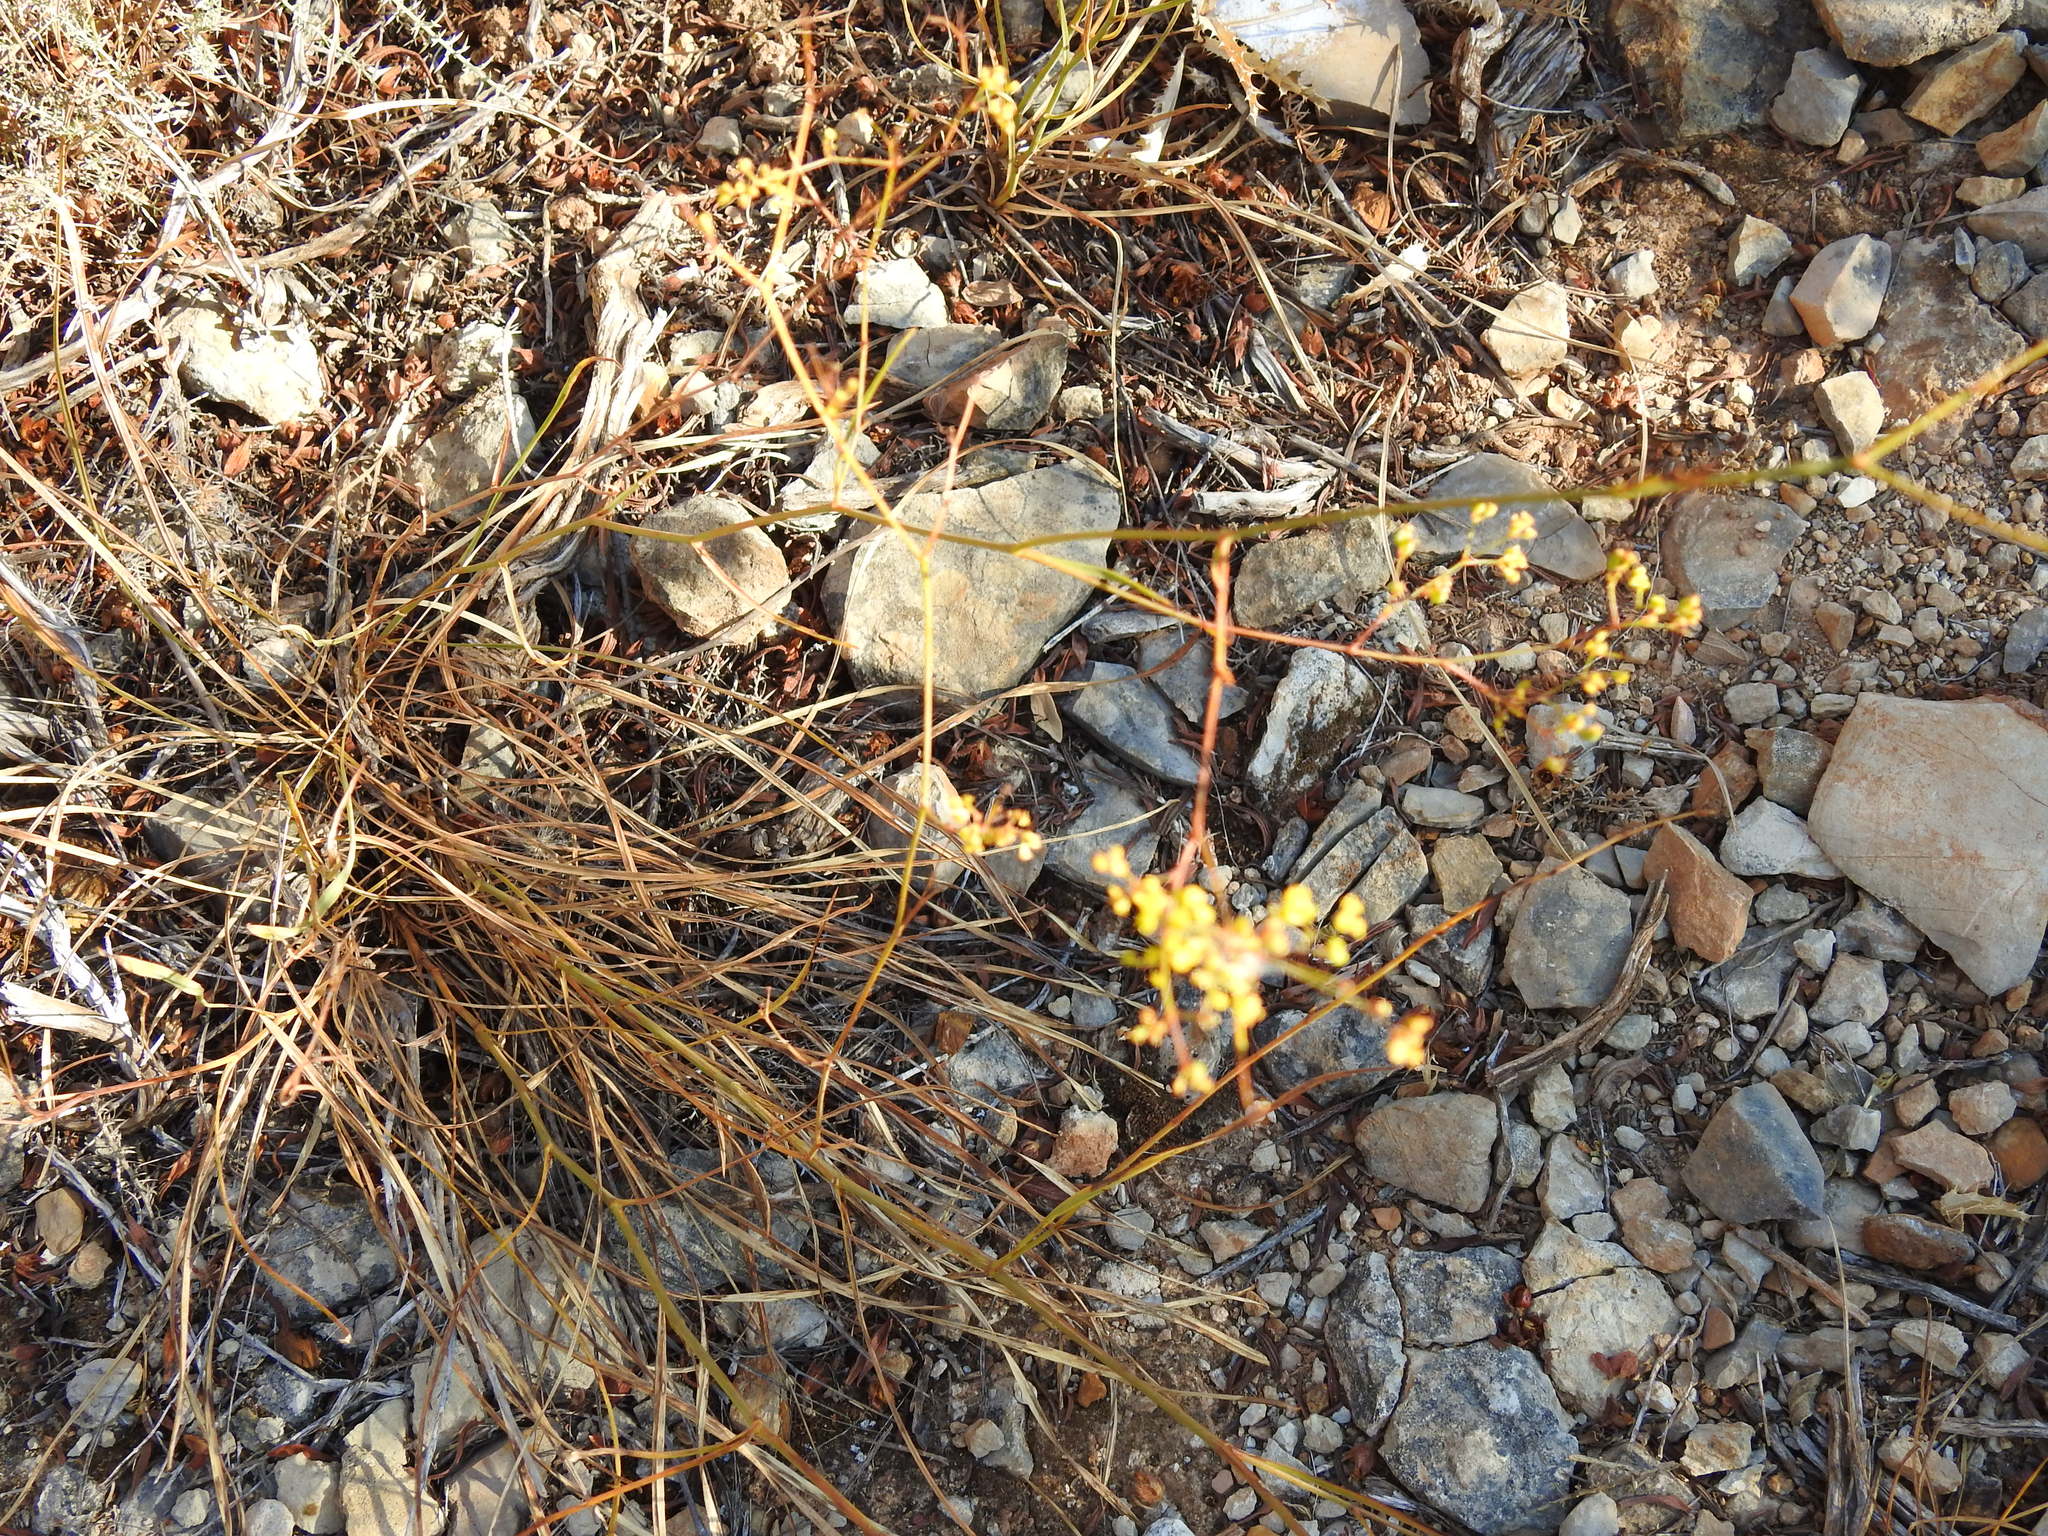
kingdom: Plantae
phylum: Tracheophyta
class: Magnoliopsida
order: Apiales
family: Apiaceae
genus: Bupleurum
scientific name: Bupleurum rigidum
